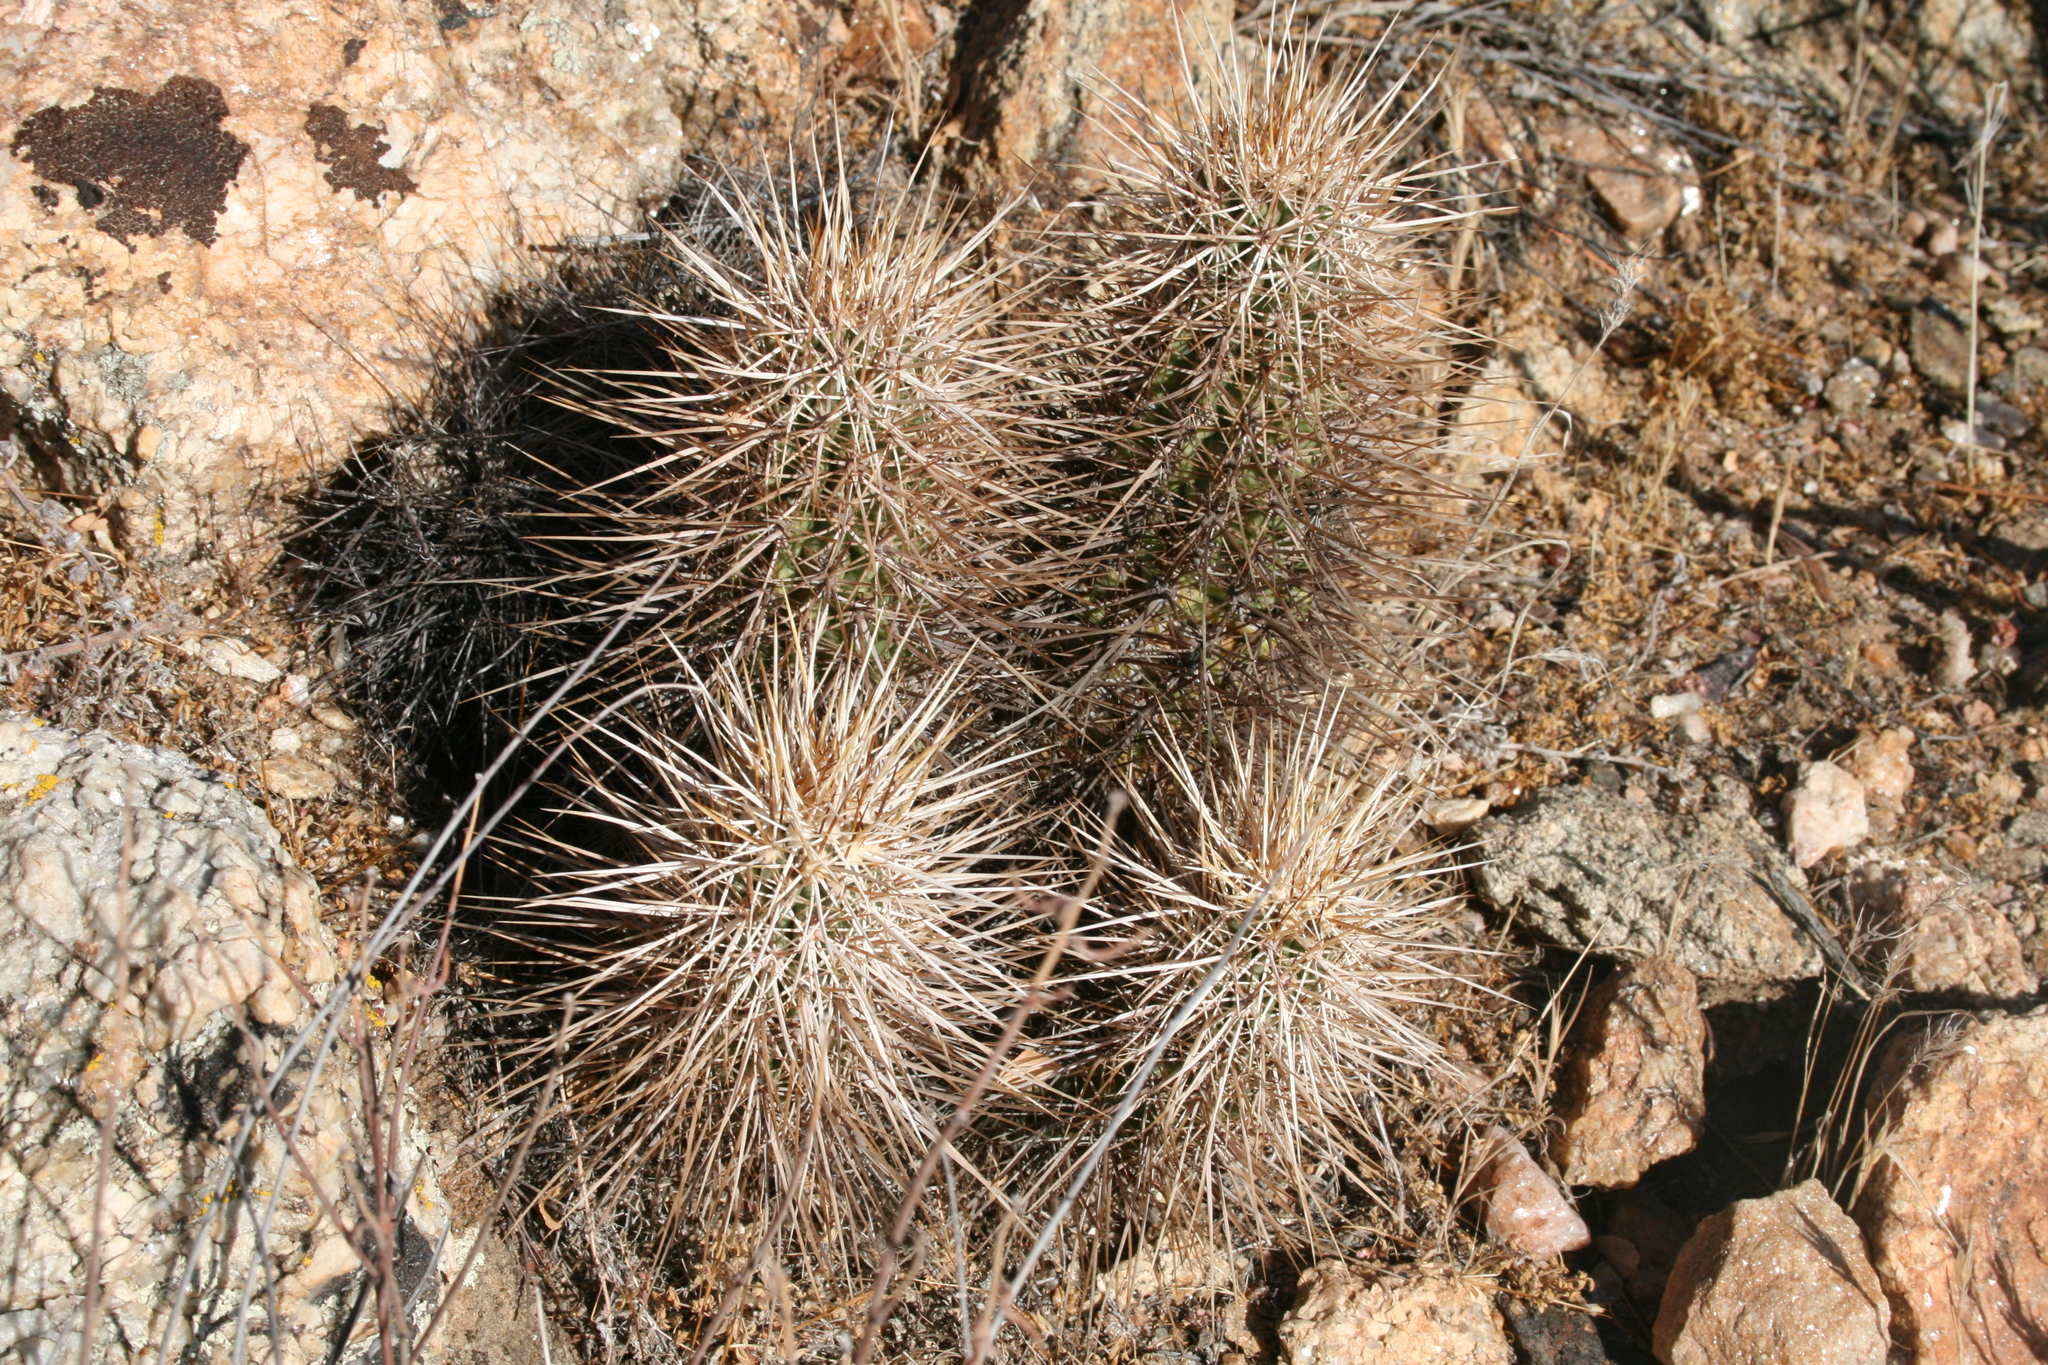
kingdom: Plantae
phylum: Tracheophyta
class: Magnoliopsida
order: Caryophyllales
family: Cactaceae
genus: Echinocereus
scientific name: Echinocereus engelmannii
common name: Engelmann's hedgehog cactus
